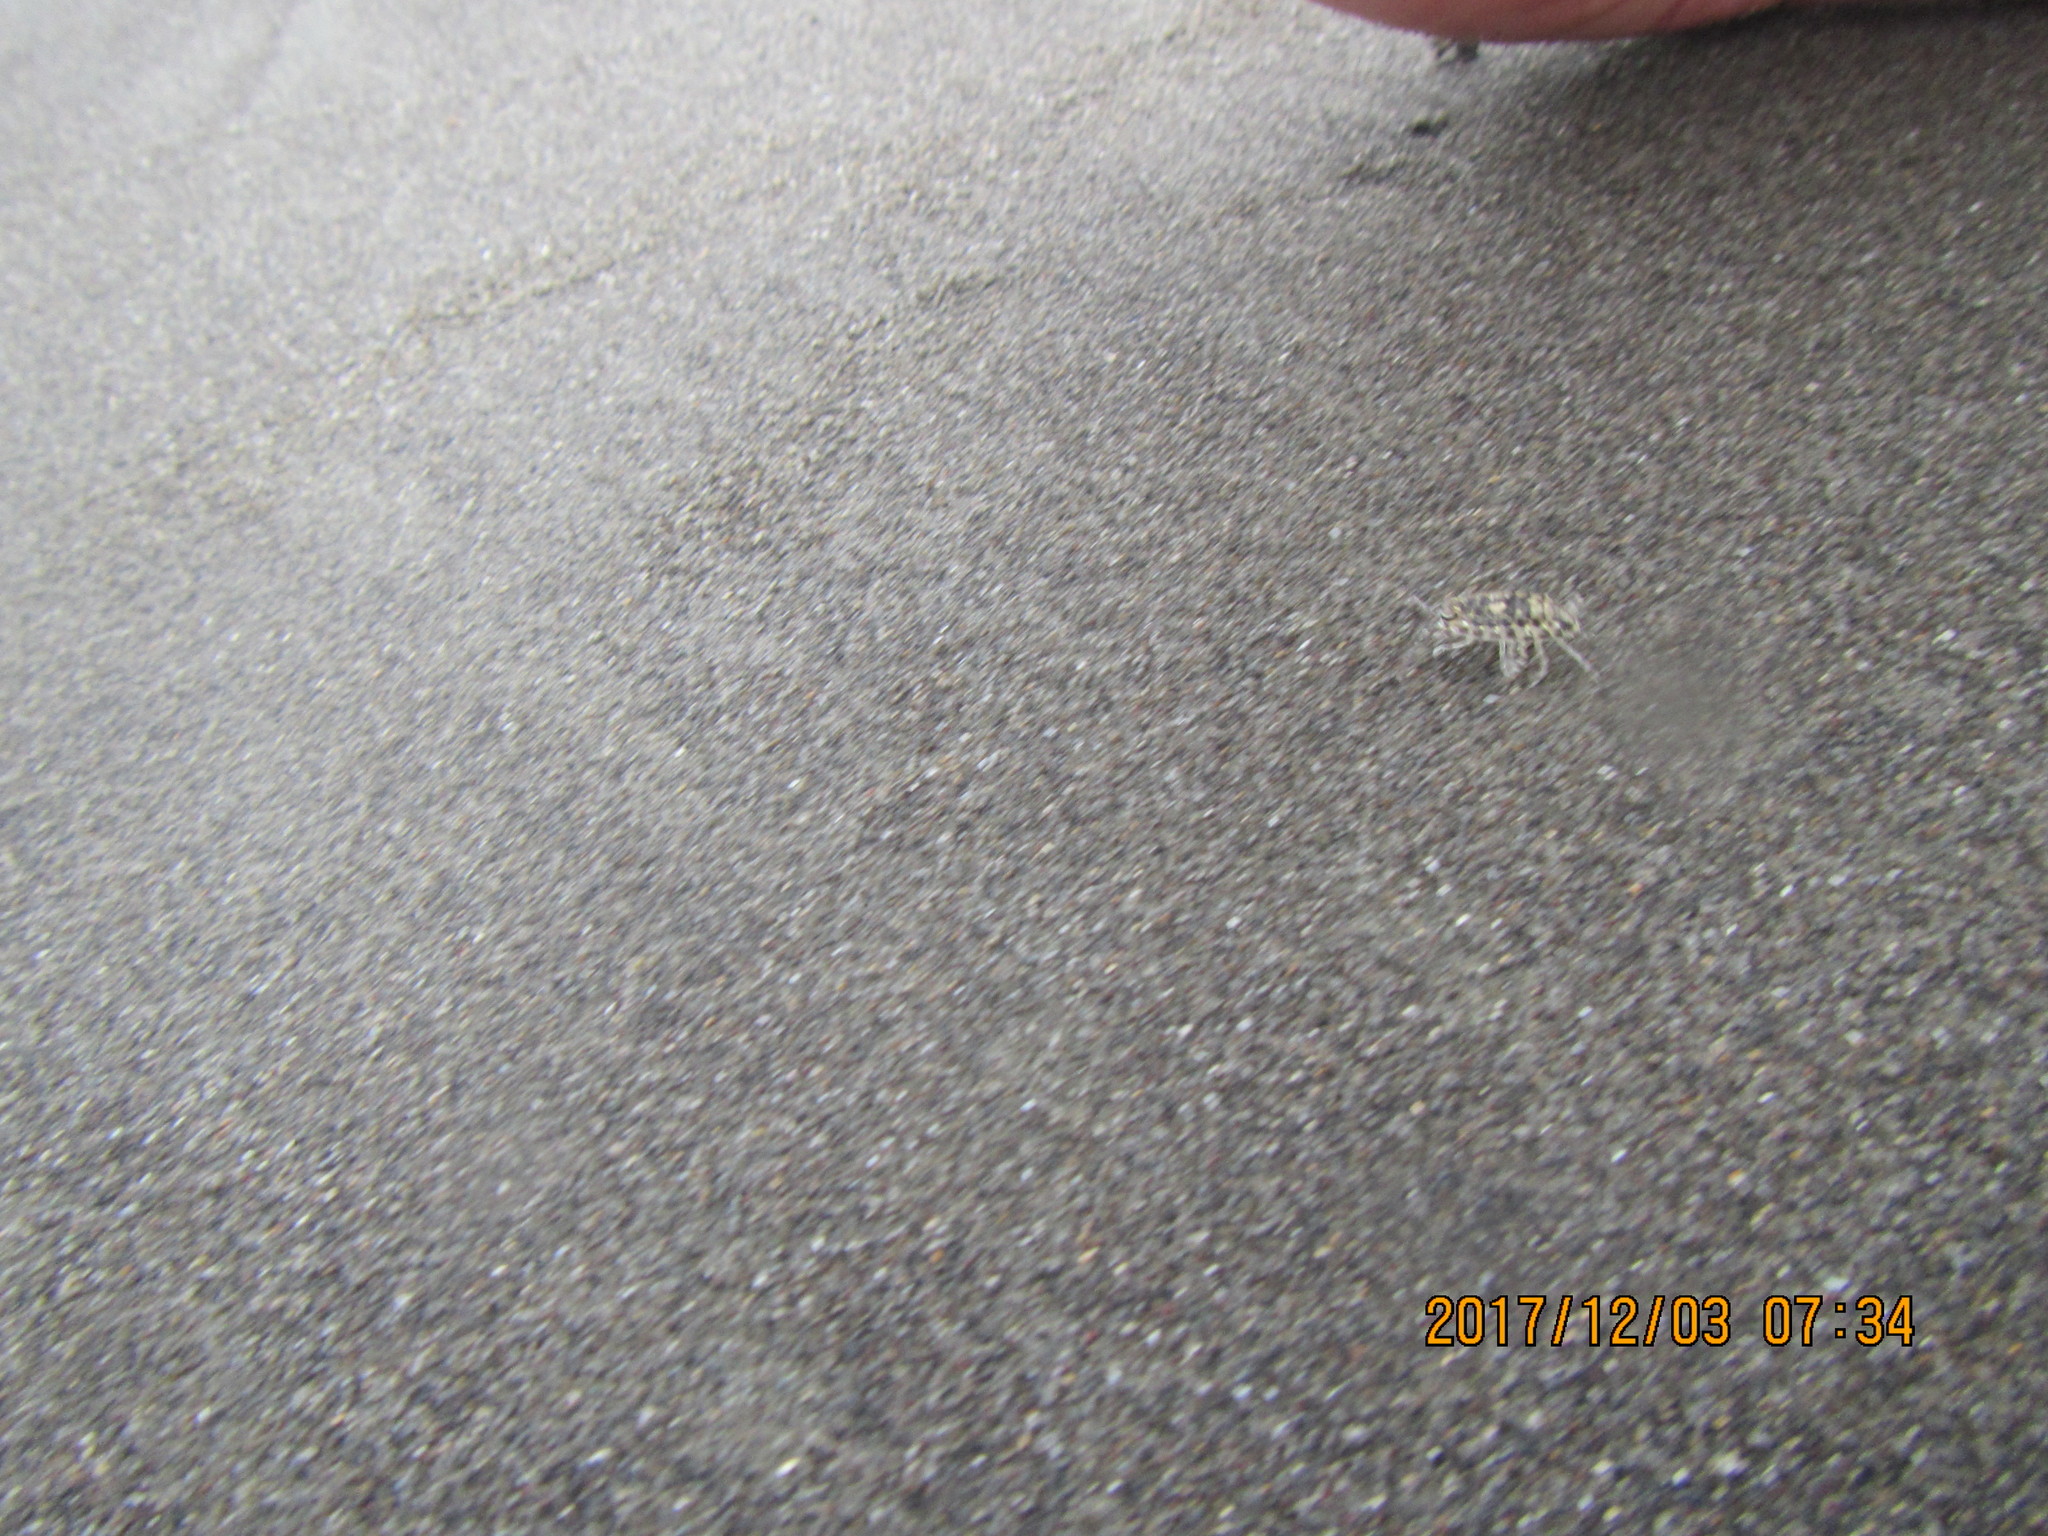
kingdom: Animalia
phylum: Arthropoda
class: Malacostraca
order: Isopoda
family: Scyphacidae
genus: Scyphax
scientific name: Scyphax ornatus
